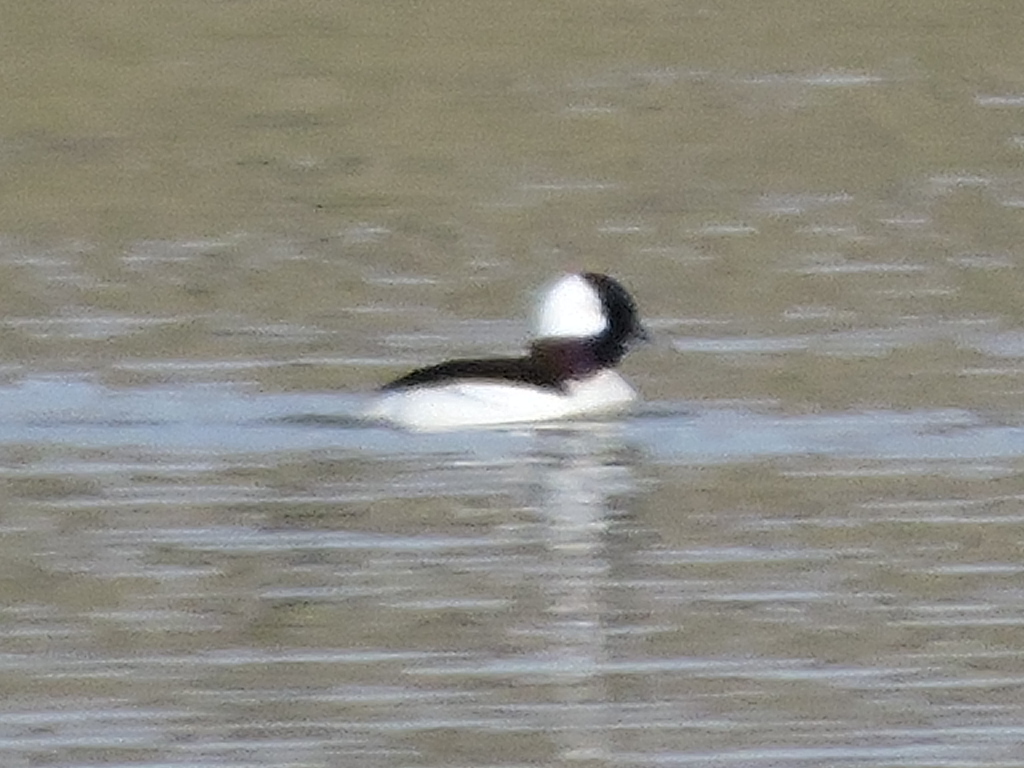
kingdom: Animalia
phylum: Chordata
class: Aves
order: Anseriformes
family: Anatidae
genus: Bucephala
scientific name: Bucephala albeola
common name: Bufflehead
